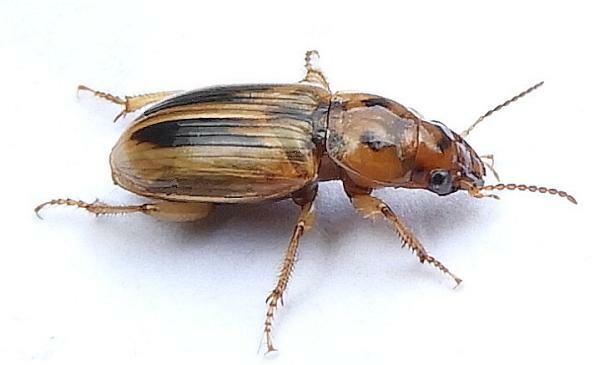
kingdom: Animalia
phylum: Arthropoda
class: Insecta
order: Coleoptera
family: Carabidae
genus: Stenolophus
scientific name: Stenolophus lineola
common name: Lined stenolophus
